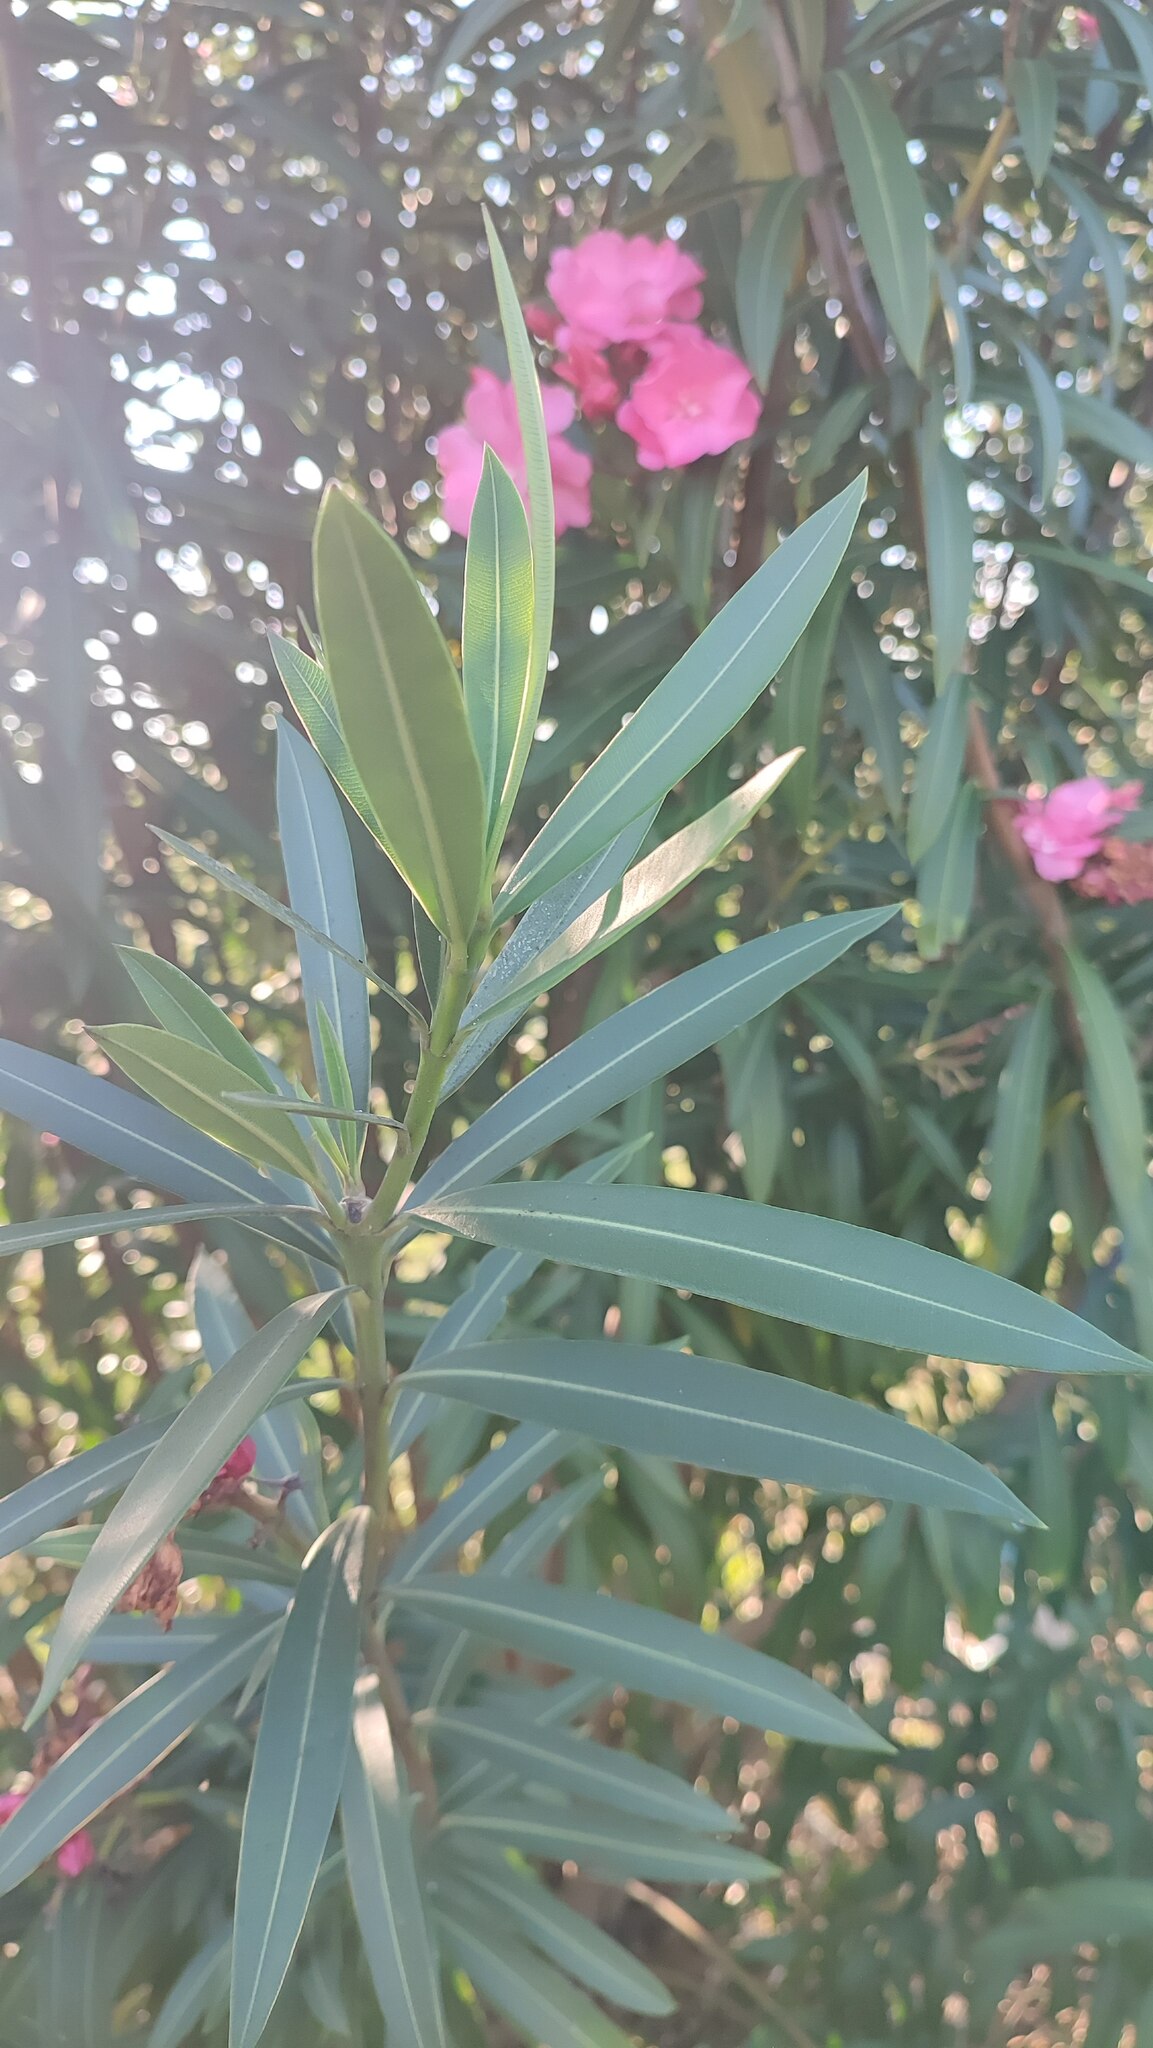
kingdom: Plantae
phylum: Tracheophyta
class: Magnoliopsida
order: Gentianales
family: Apocynaceae
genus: Nerium
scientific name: Nerium oleander
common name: Oleander
